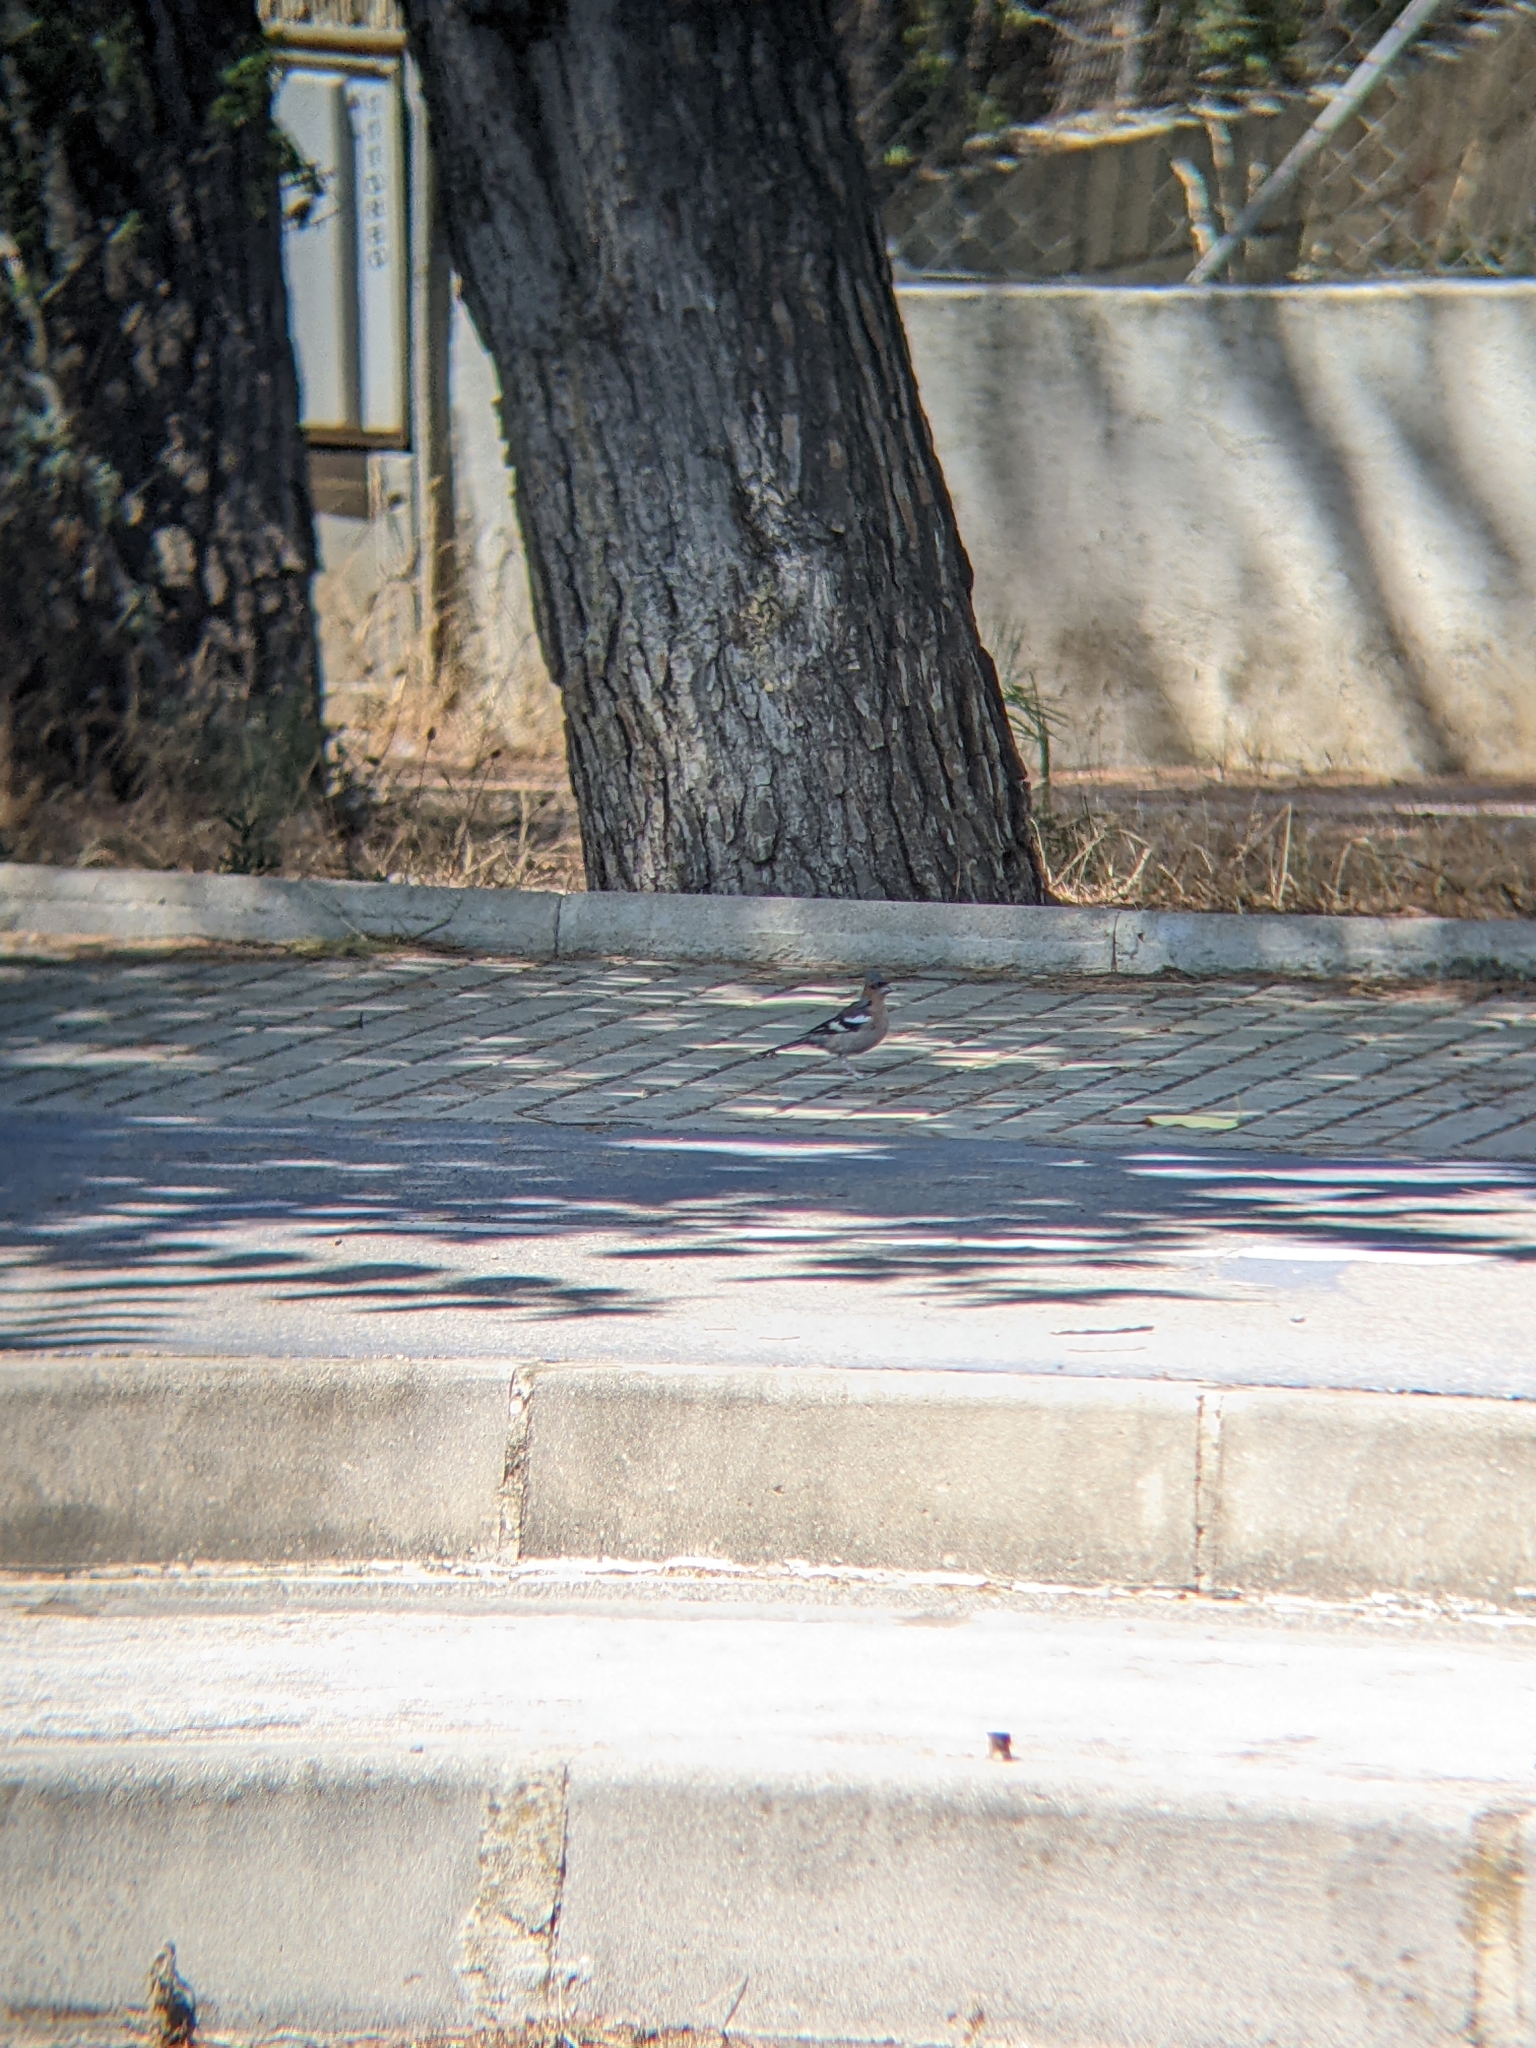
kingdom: Animalia
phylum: Chordata
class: Aves
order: Passeriformes
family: Fringillidae
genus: Fringilla
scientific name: Fringilla coelebs
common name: Common chaffinch
